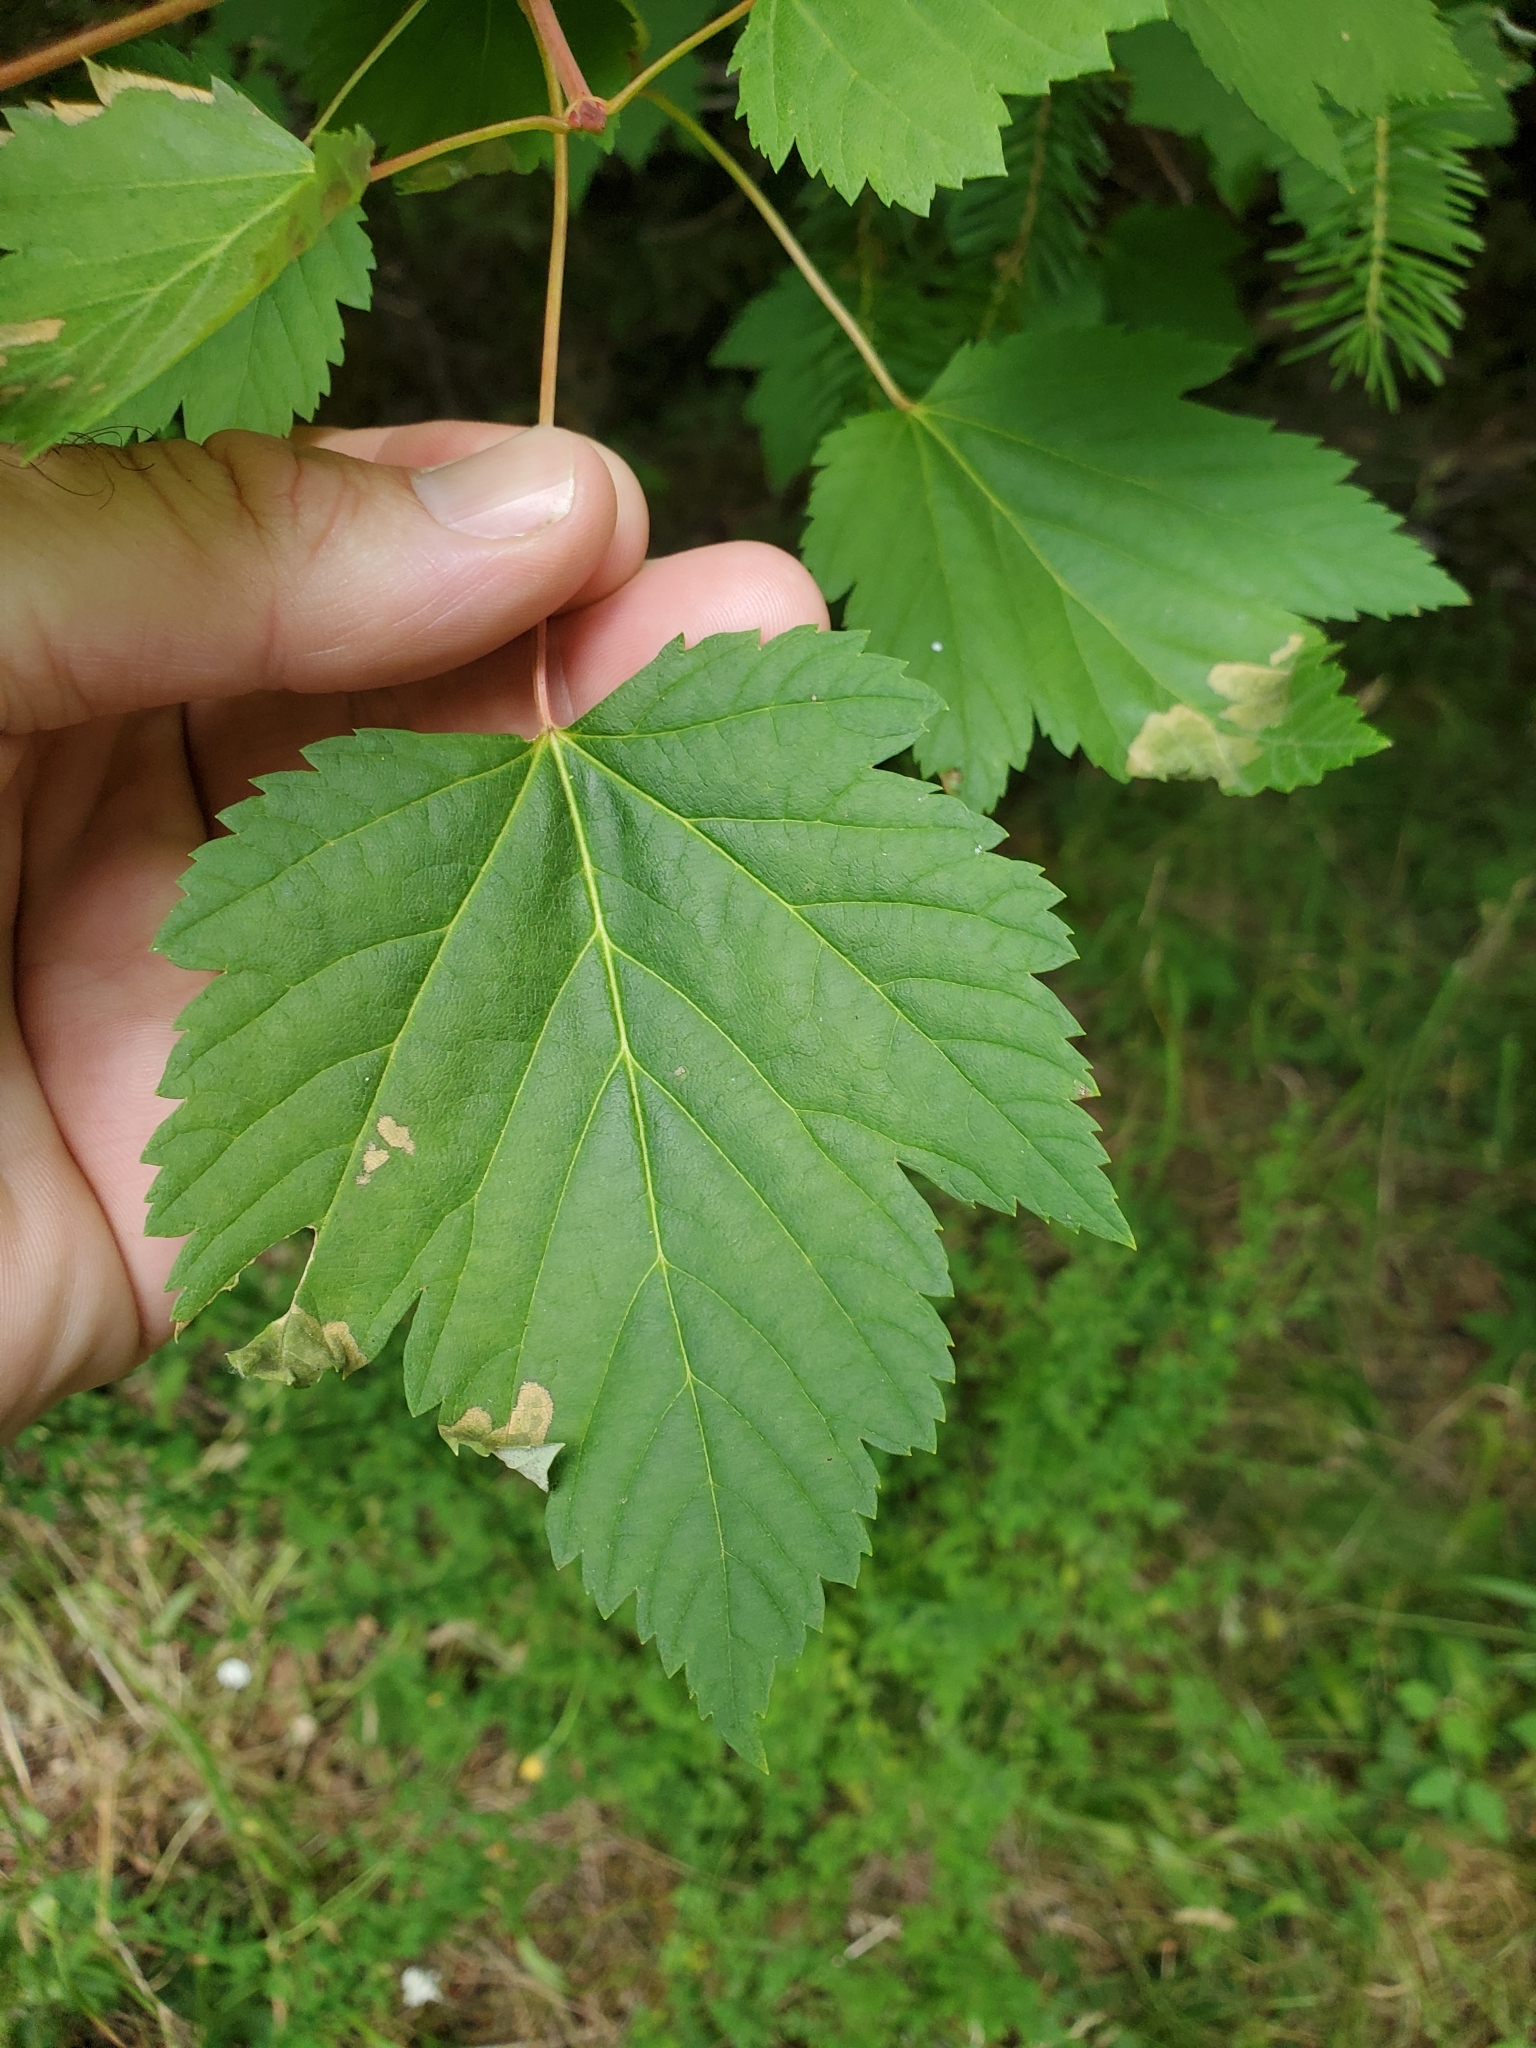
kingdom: Plantae
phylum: Tracheophyta
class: Magnoliopsida
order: Sapindales
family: Sapindaceae
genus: Acer
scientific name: Acer glabrum
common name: Rocky mountain maple
